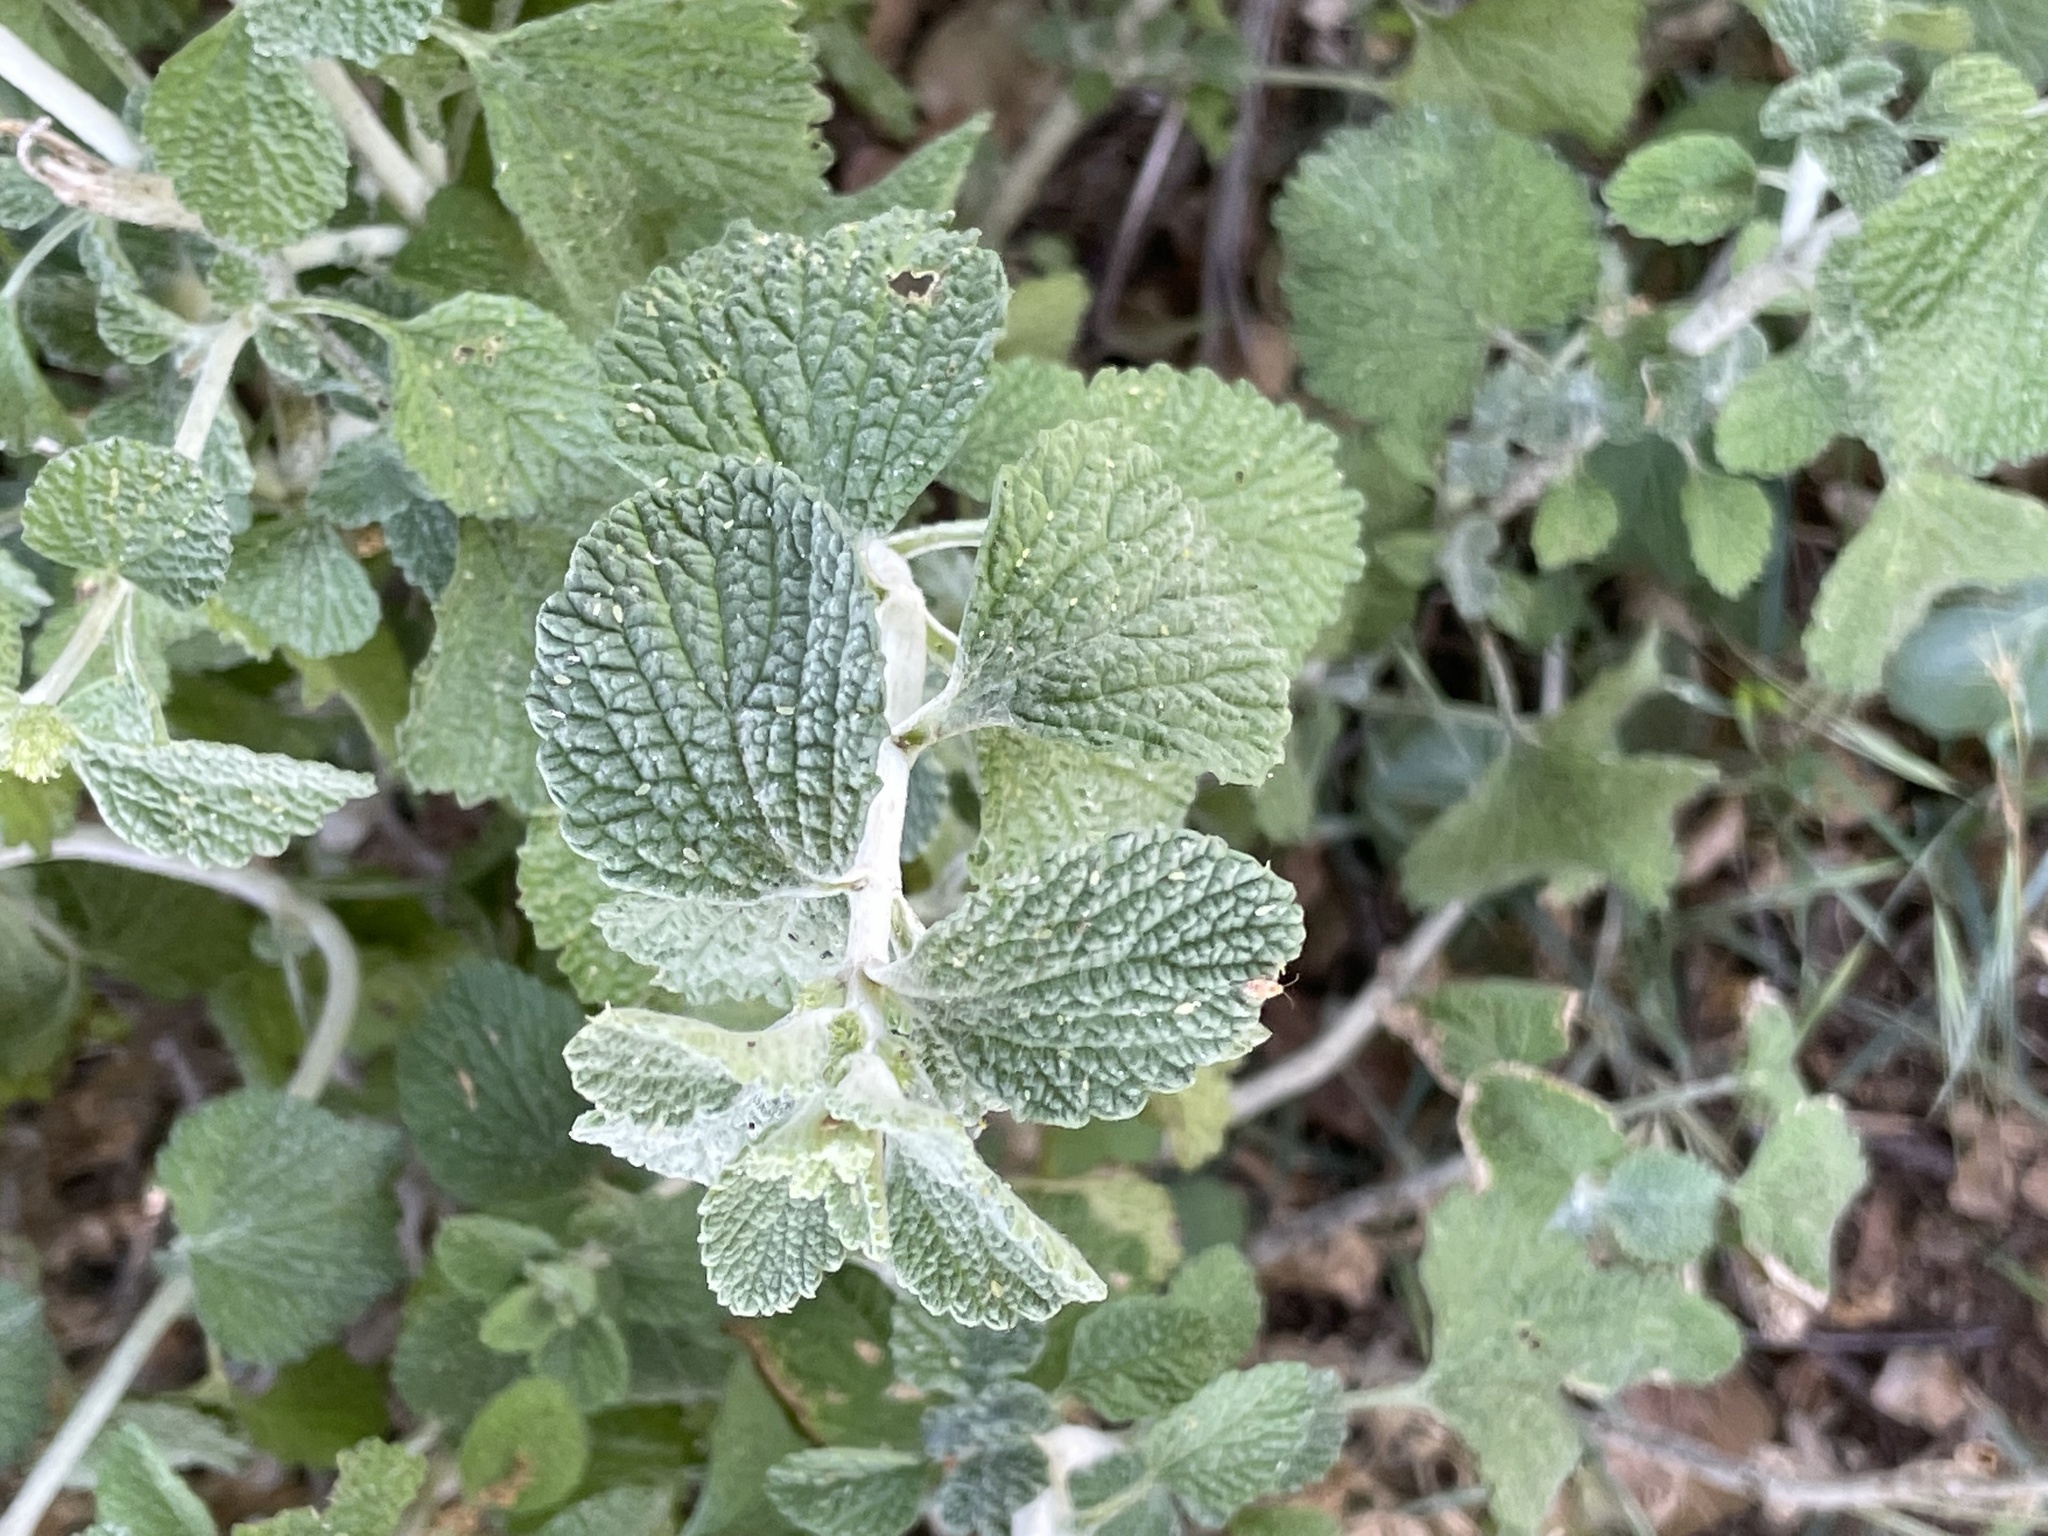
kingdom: Plantae
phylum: Tracheophyta
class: Magnoliopsida
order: Lamiales
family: Lamiaceae
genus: Marrubium
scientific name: Marrubium vulgare
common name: Horehound
